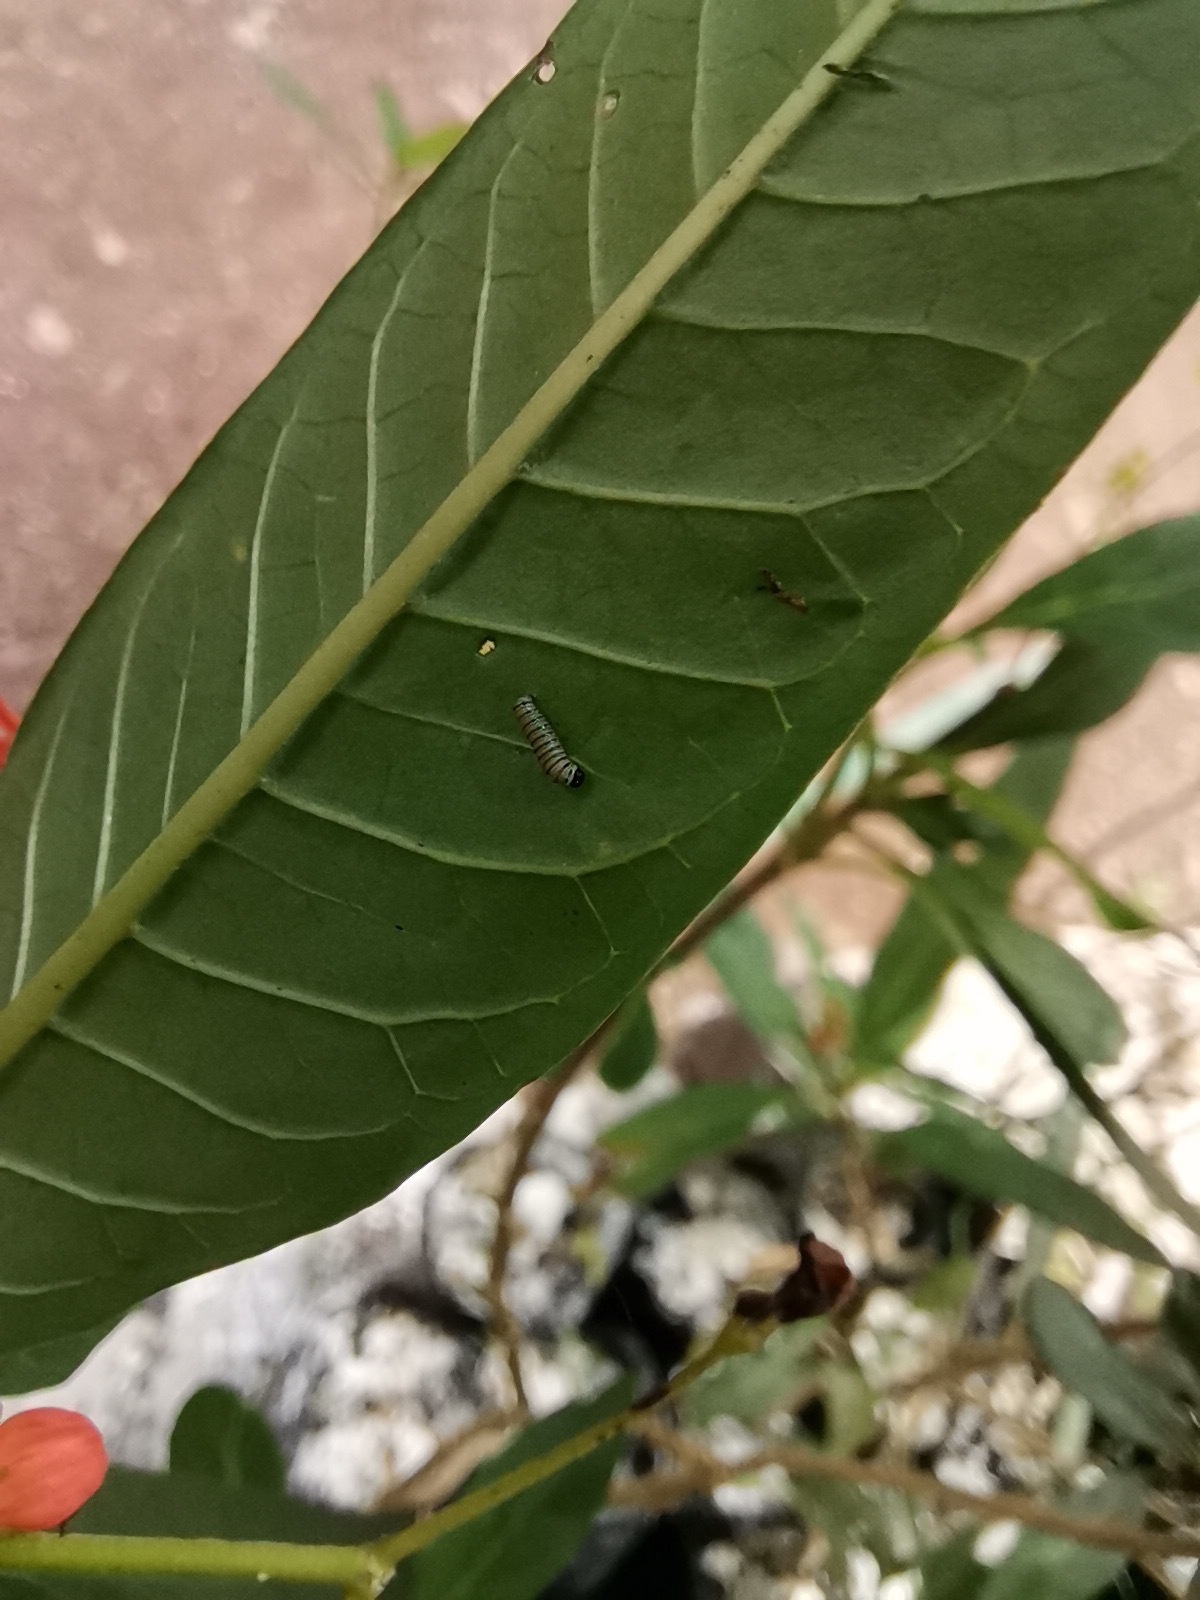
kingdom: Animalia
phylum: Arthropoda
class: Insecta
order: Lepidoptera
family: Nymphalidae
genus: Danaus
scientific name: Danaus plexippus
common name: Monarch
